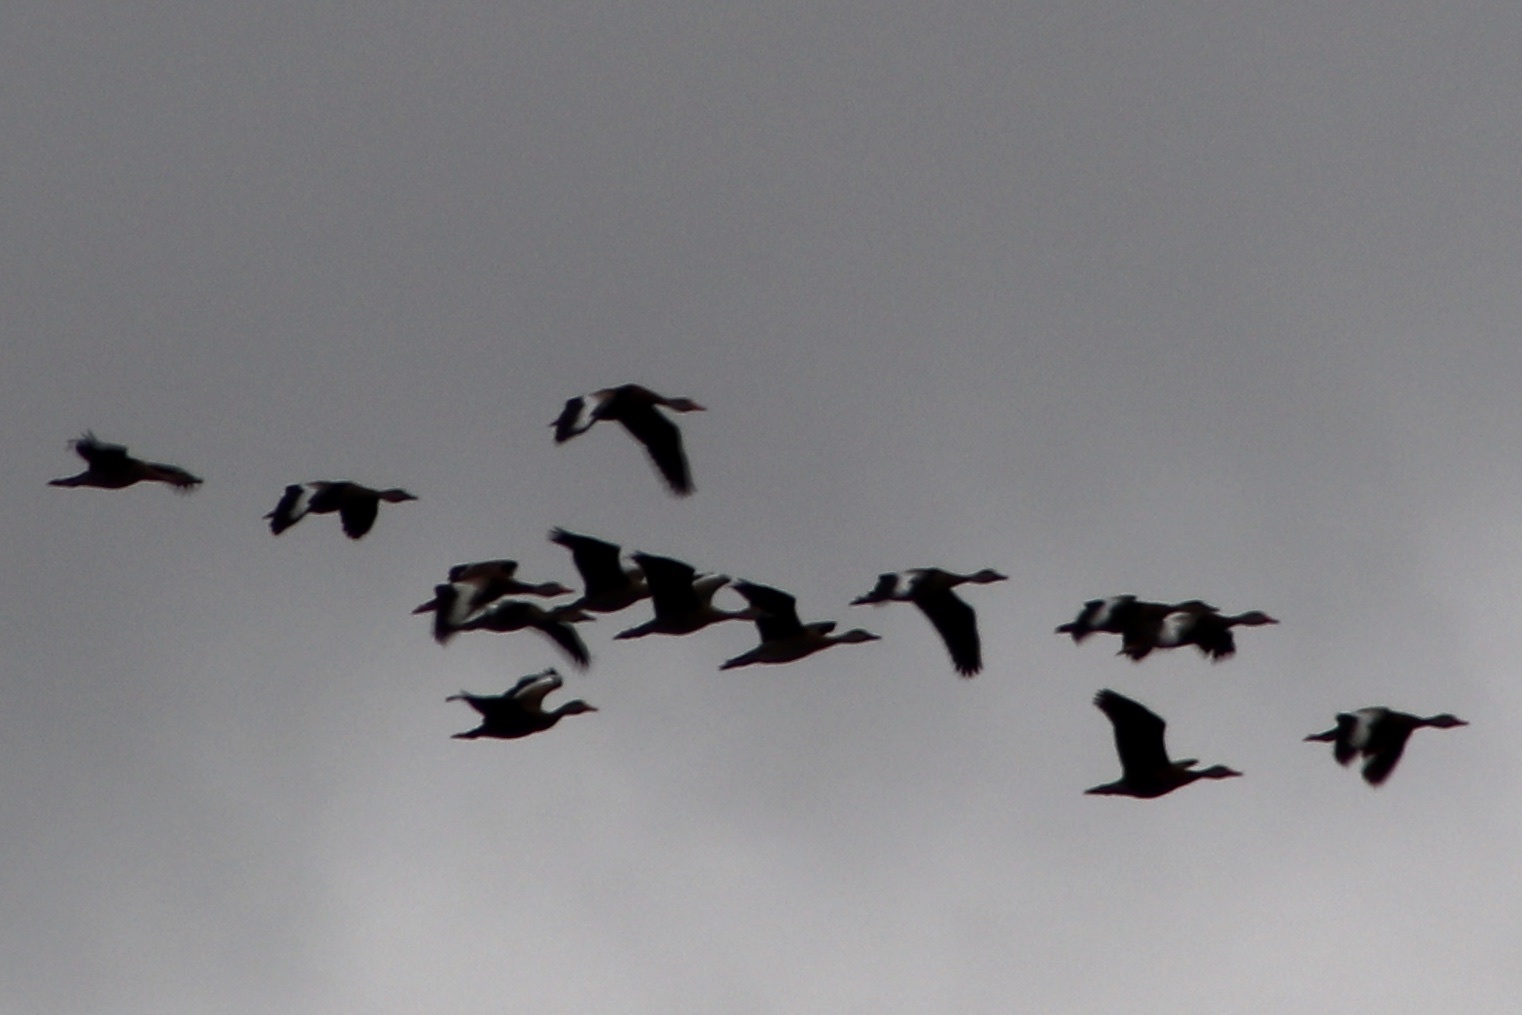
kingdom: Animalia
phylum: Chordata
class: Aves
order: Anseriformes
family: Anatidae
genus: Dendrocygna
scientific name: Dendrocygna autumnalis
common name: Black-bellied whistling duck
